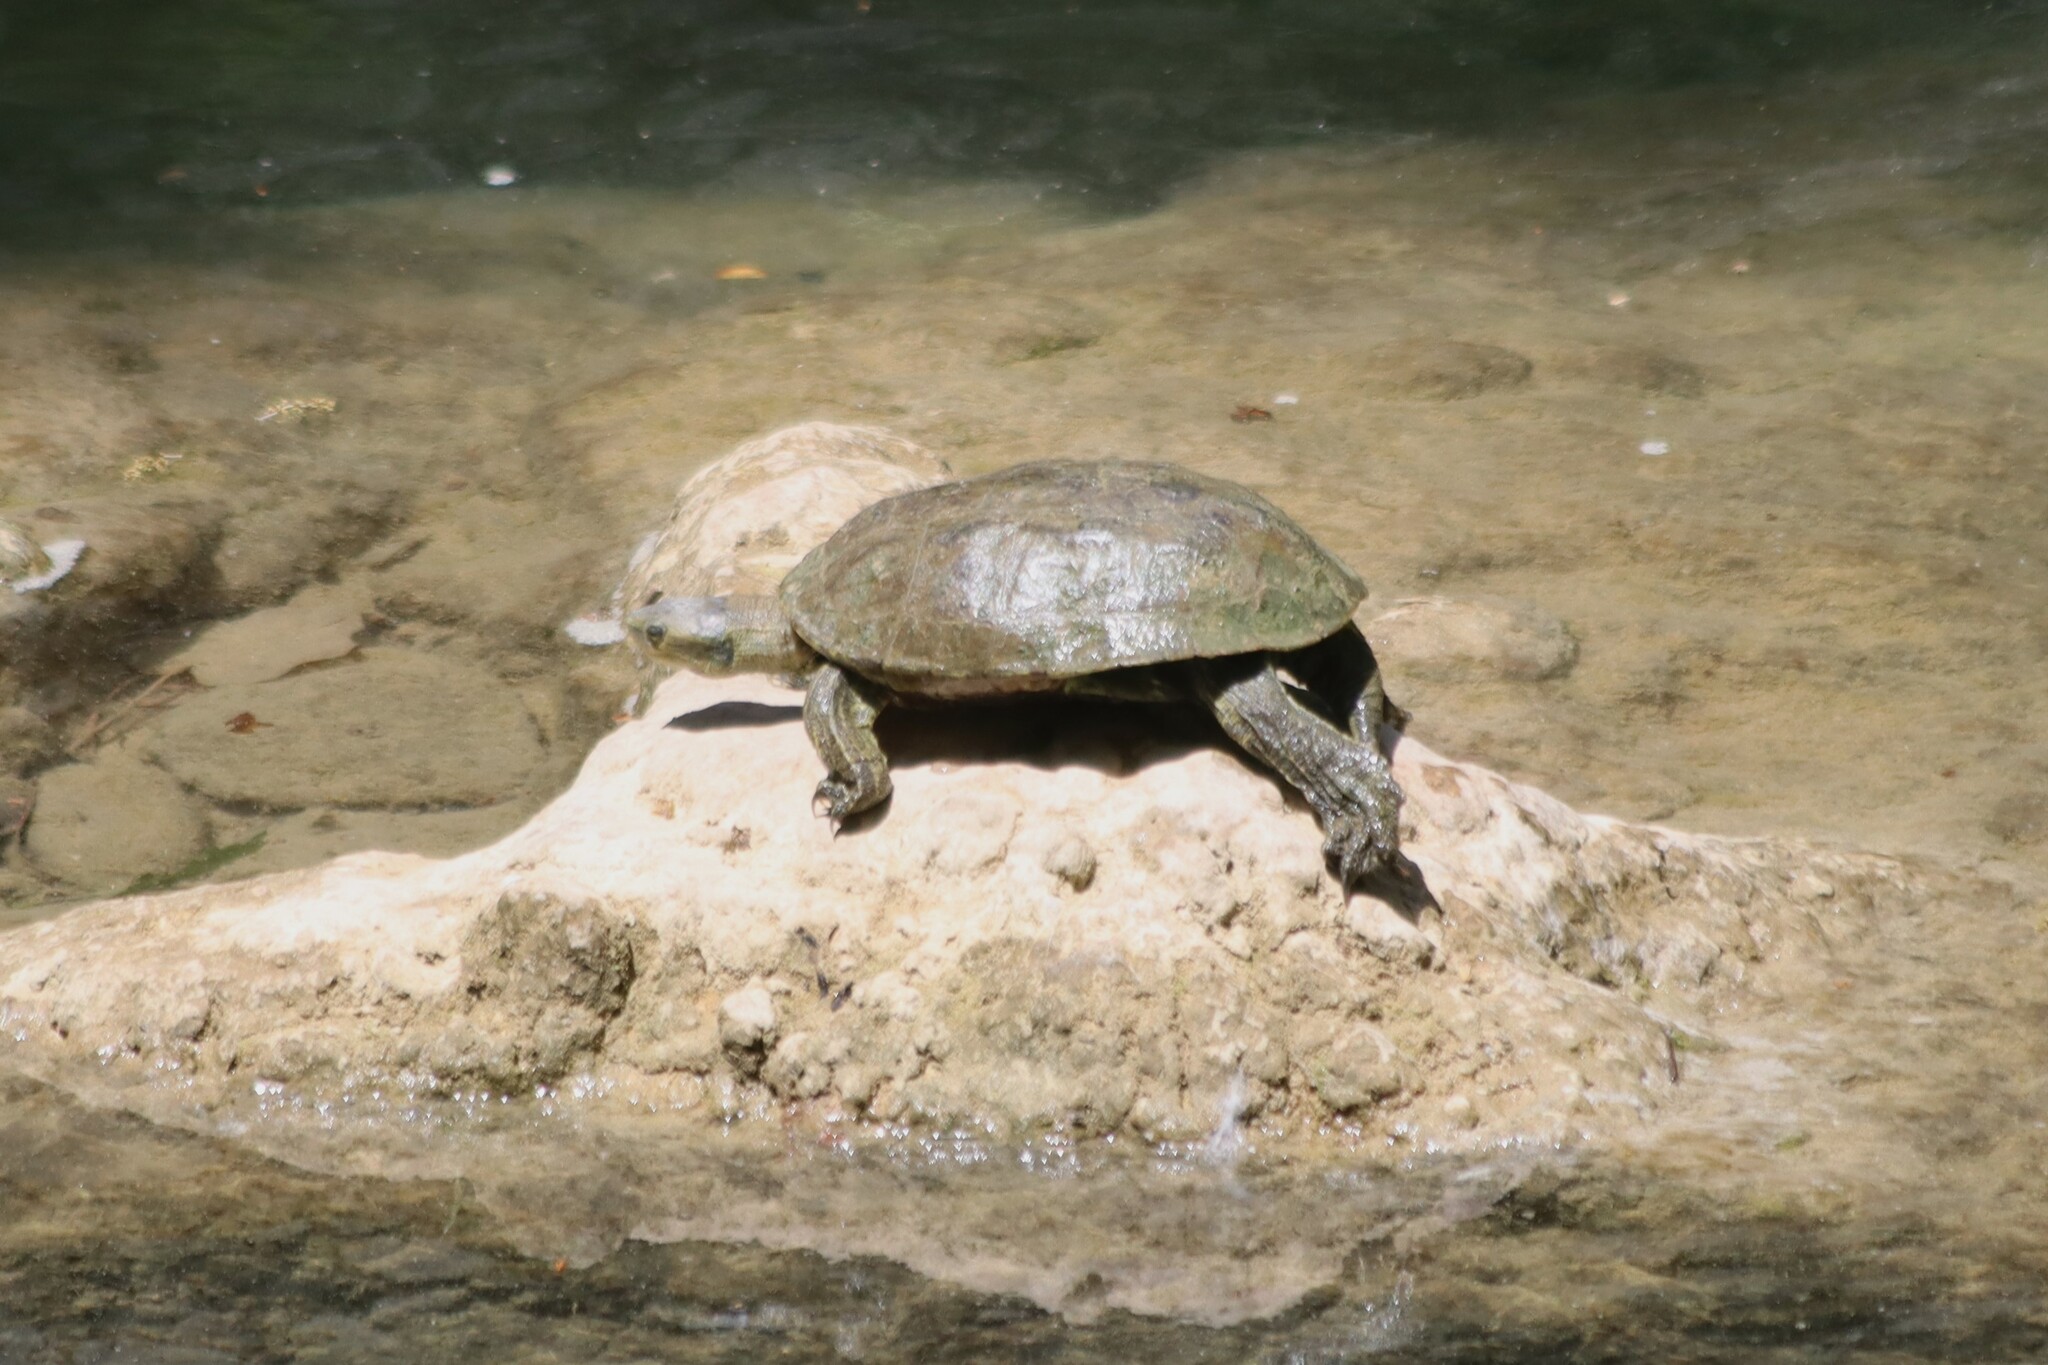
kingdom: Animalia
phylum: Chordata
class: Testudines
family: Geoemydidae
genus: Mauremys
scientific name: Mauremys rivulata
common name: Western caspian turtle
